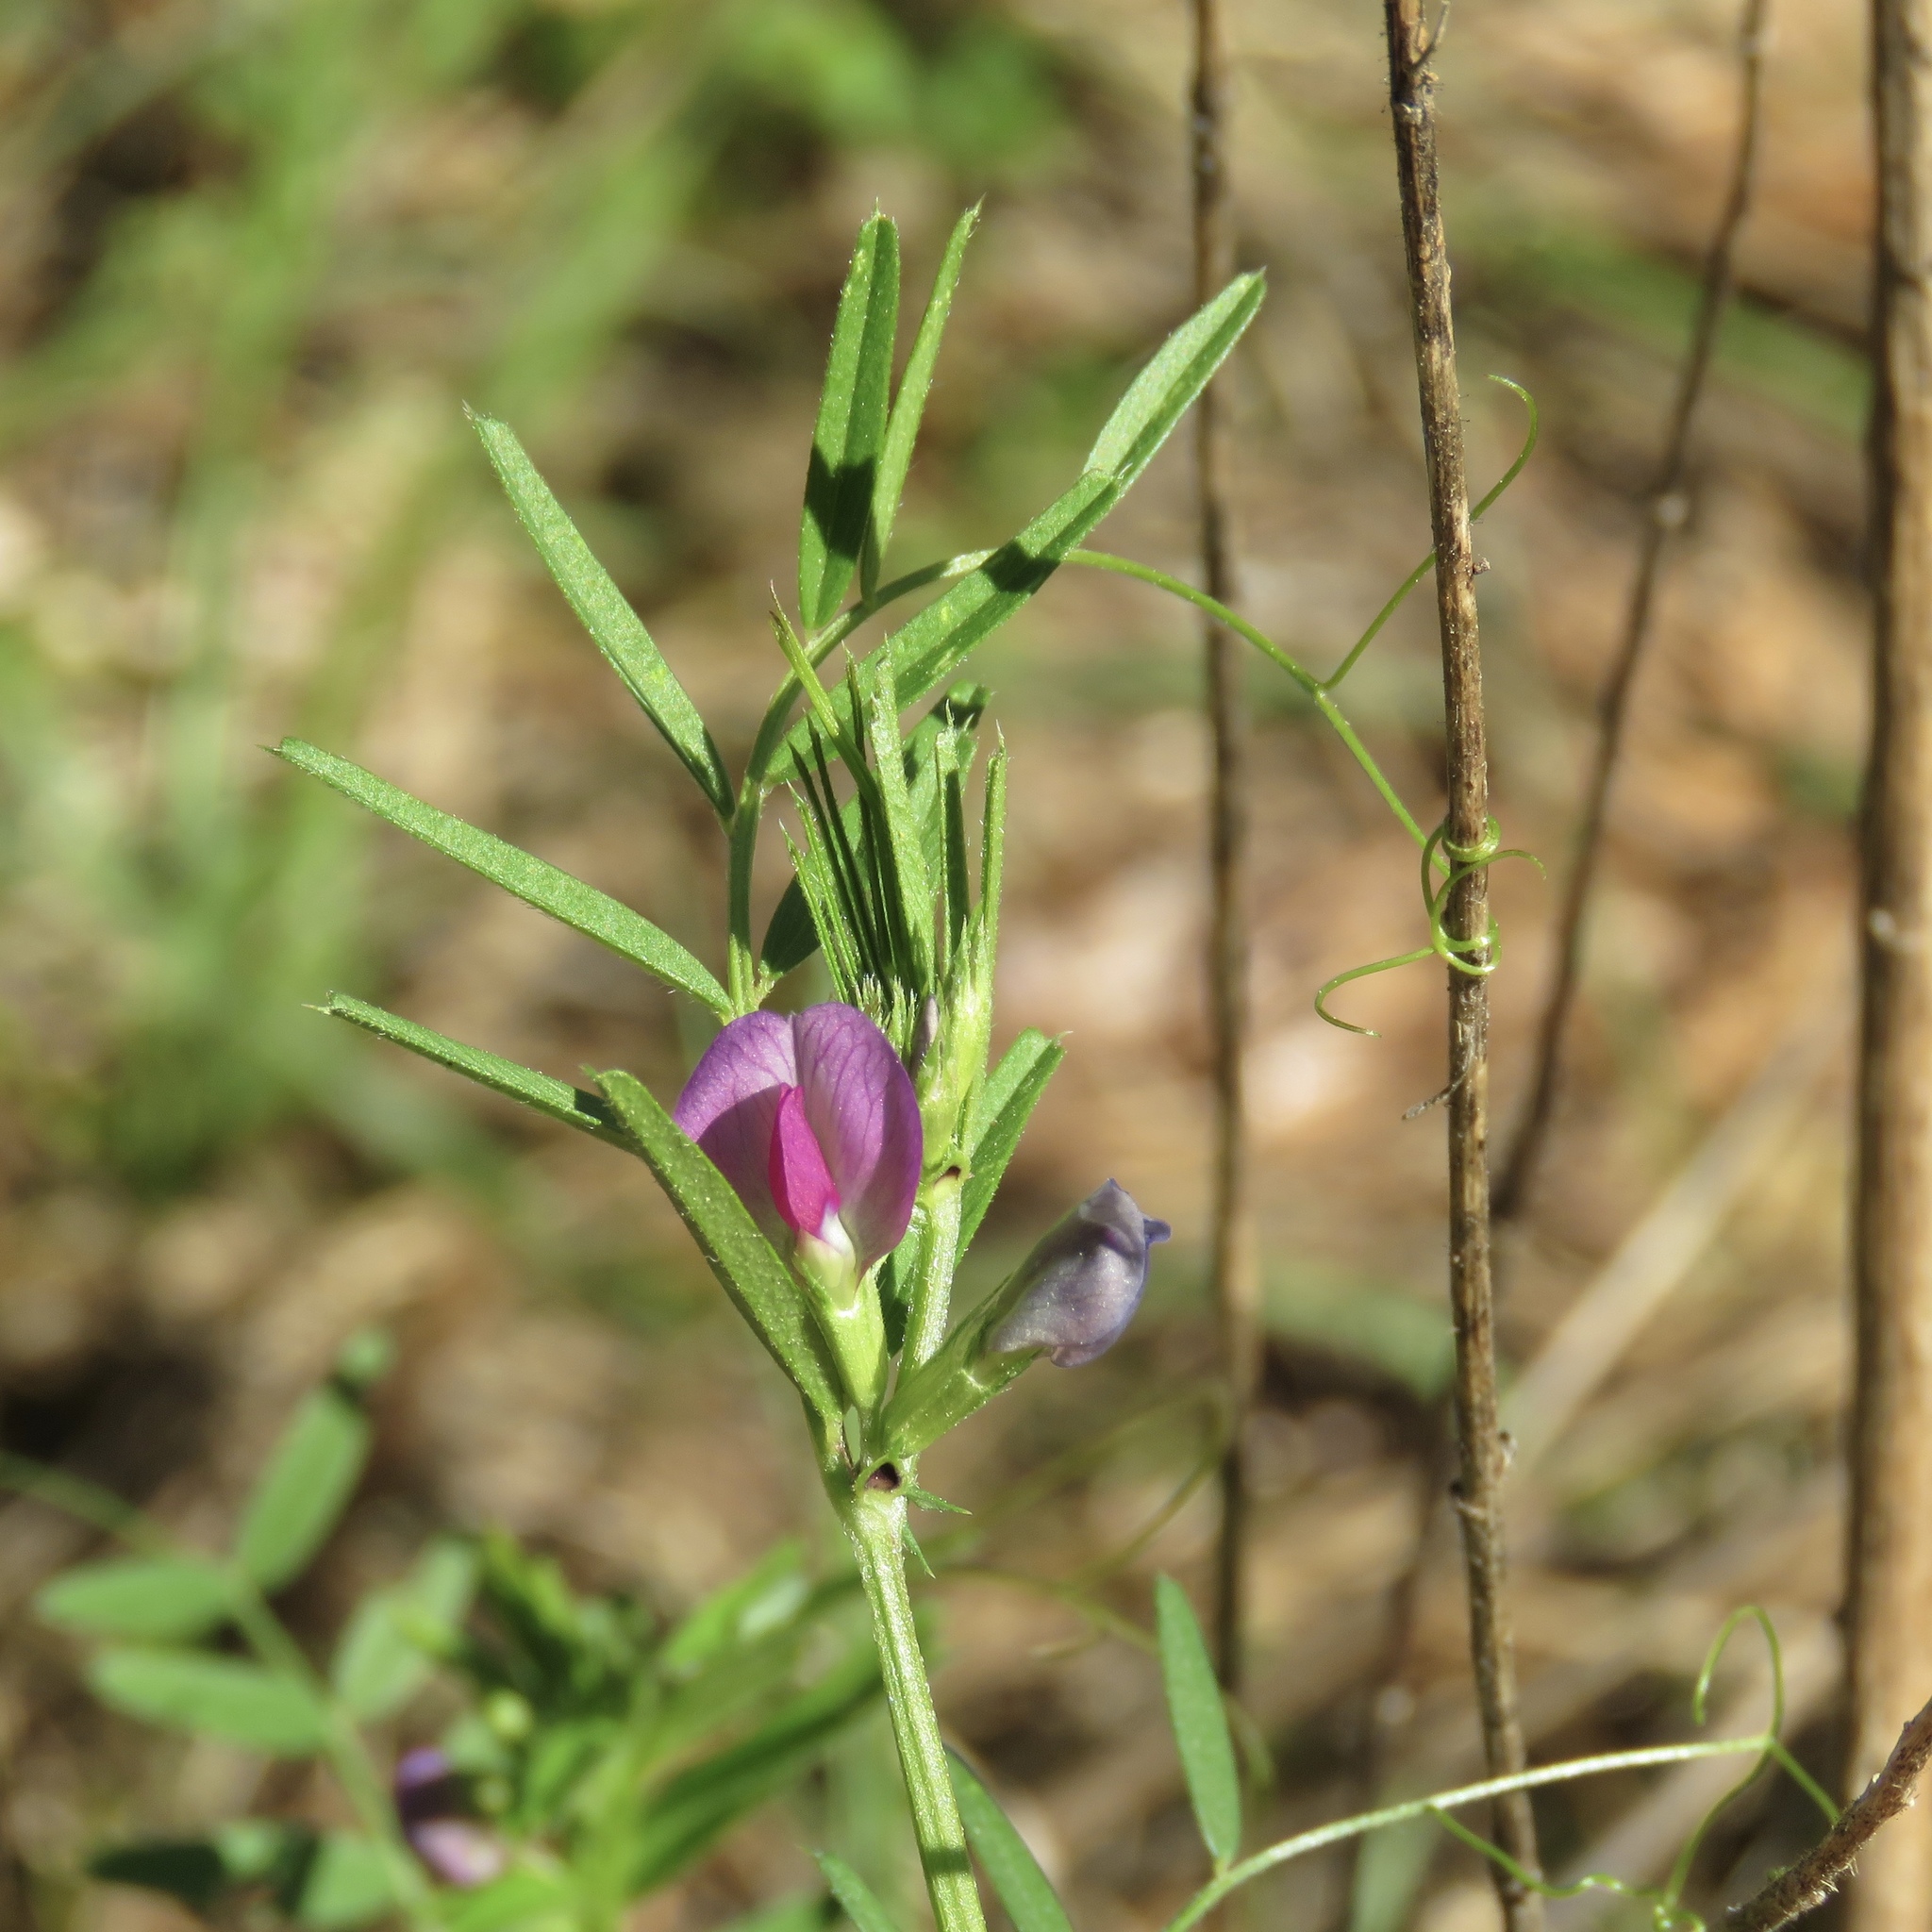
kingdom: Plantae
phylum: Tracheophyta
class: Magnoliopsida
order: Fabales
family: Fabaceae
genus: Vicia
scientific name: Vicia sativa
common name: Garden vetch
